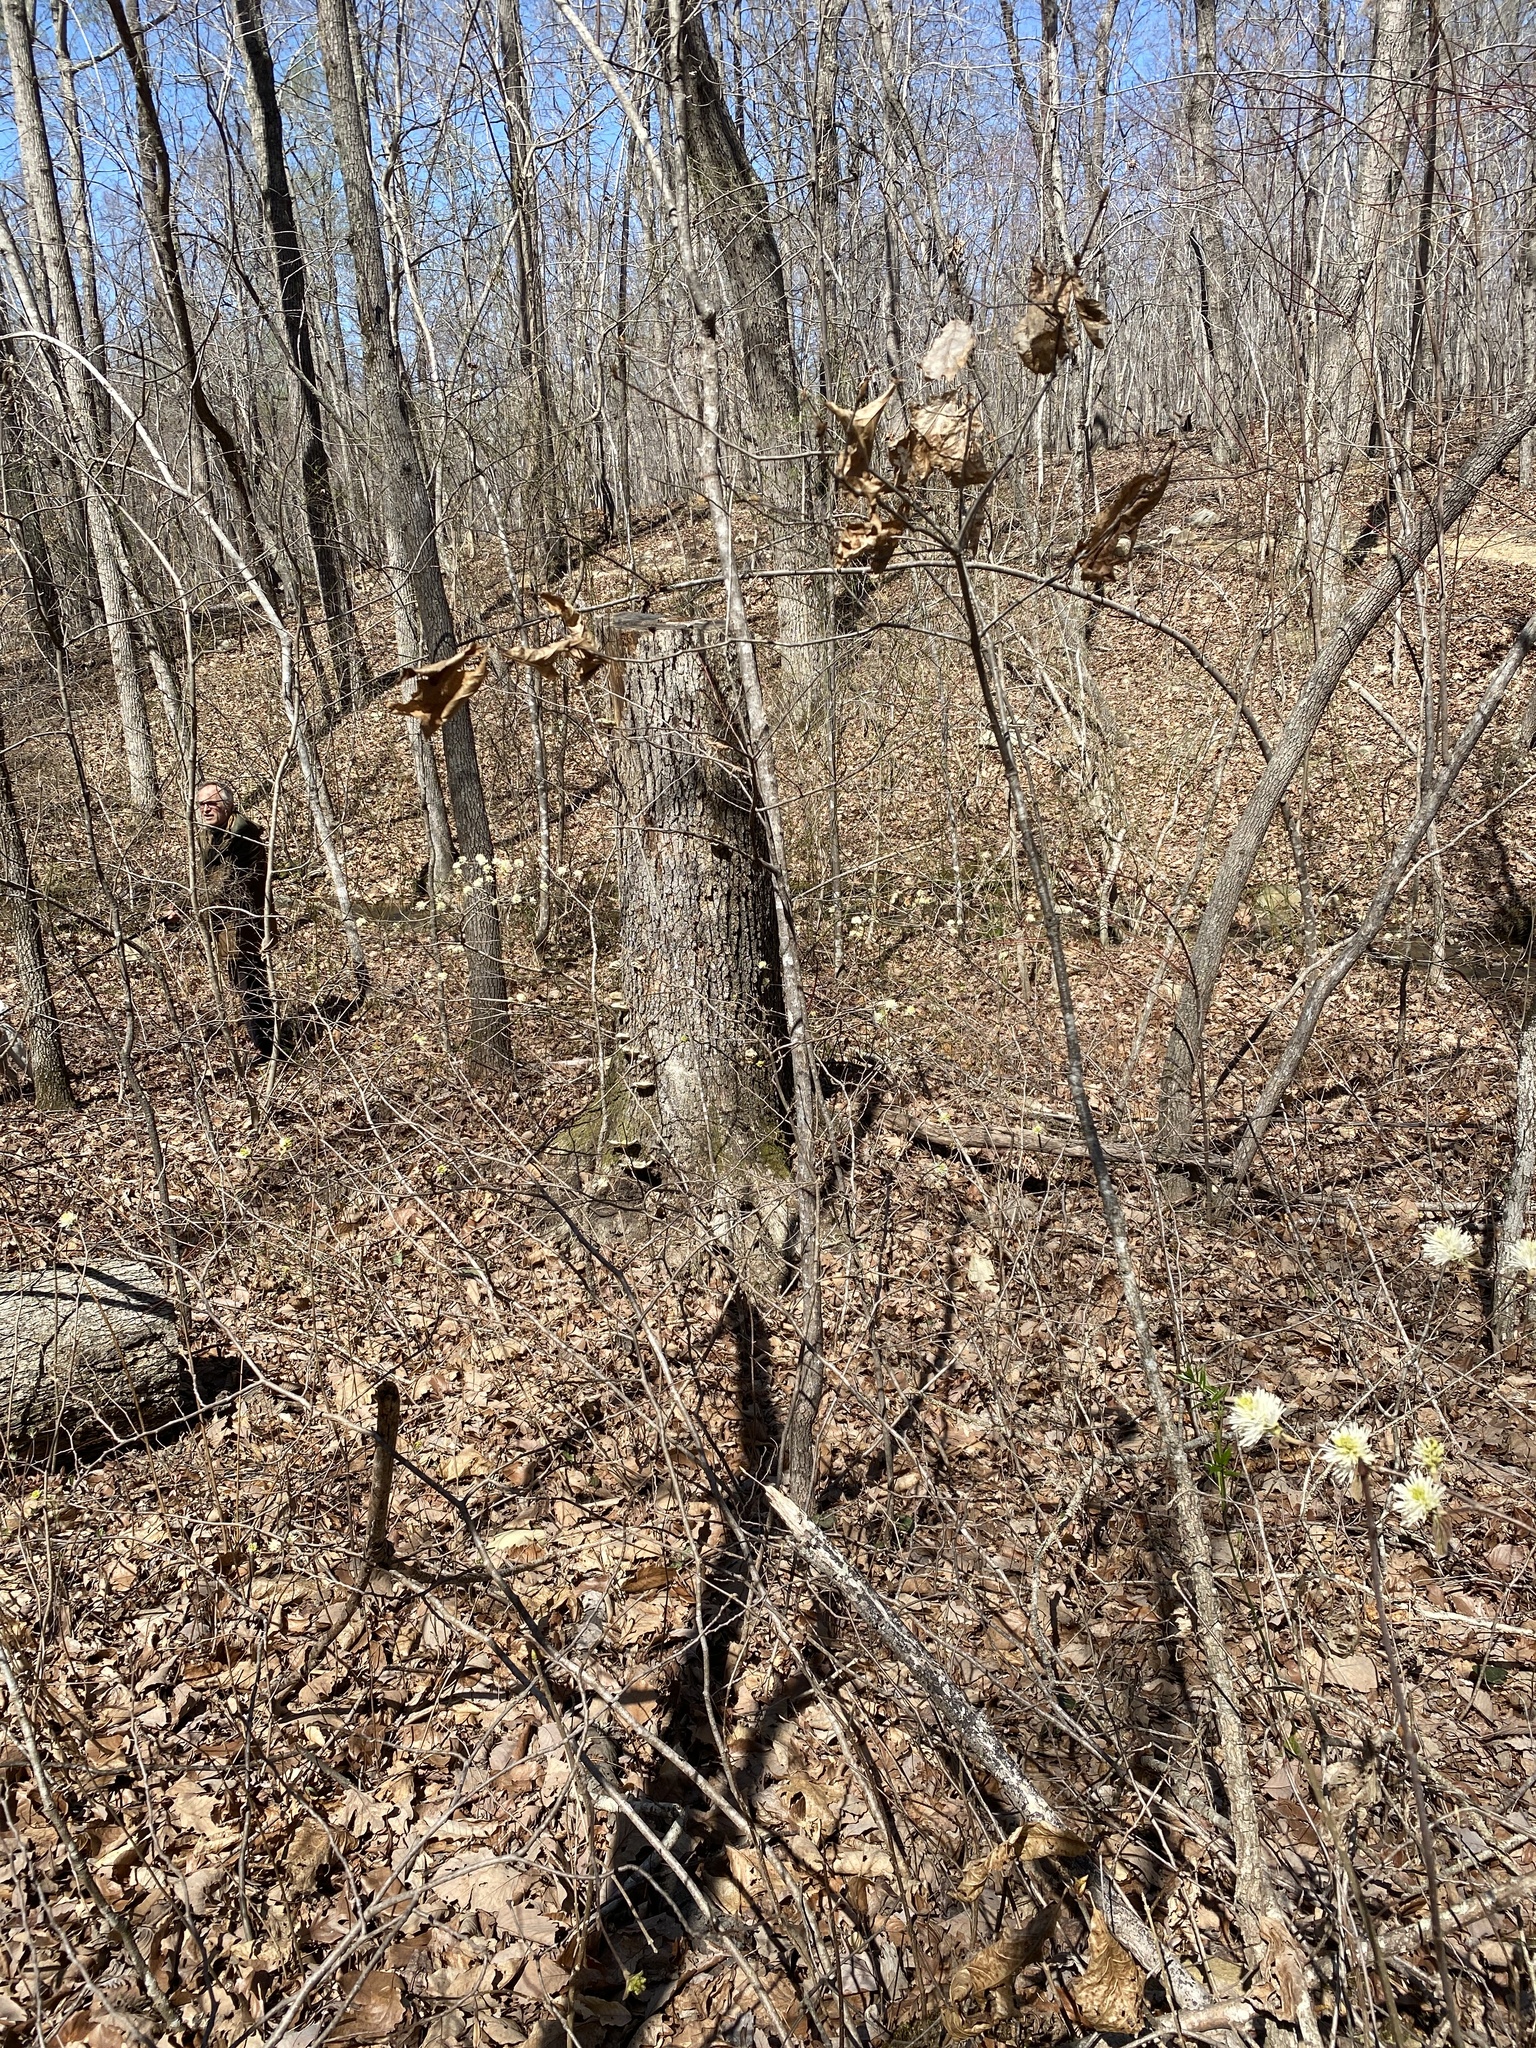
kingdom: Plantae
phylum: Tracheophyta
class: Magnoliopsida
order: Saxifragales
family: Hamamelidaceae
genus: Fothergilla
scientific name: Fothergilla latifolia
